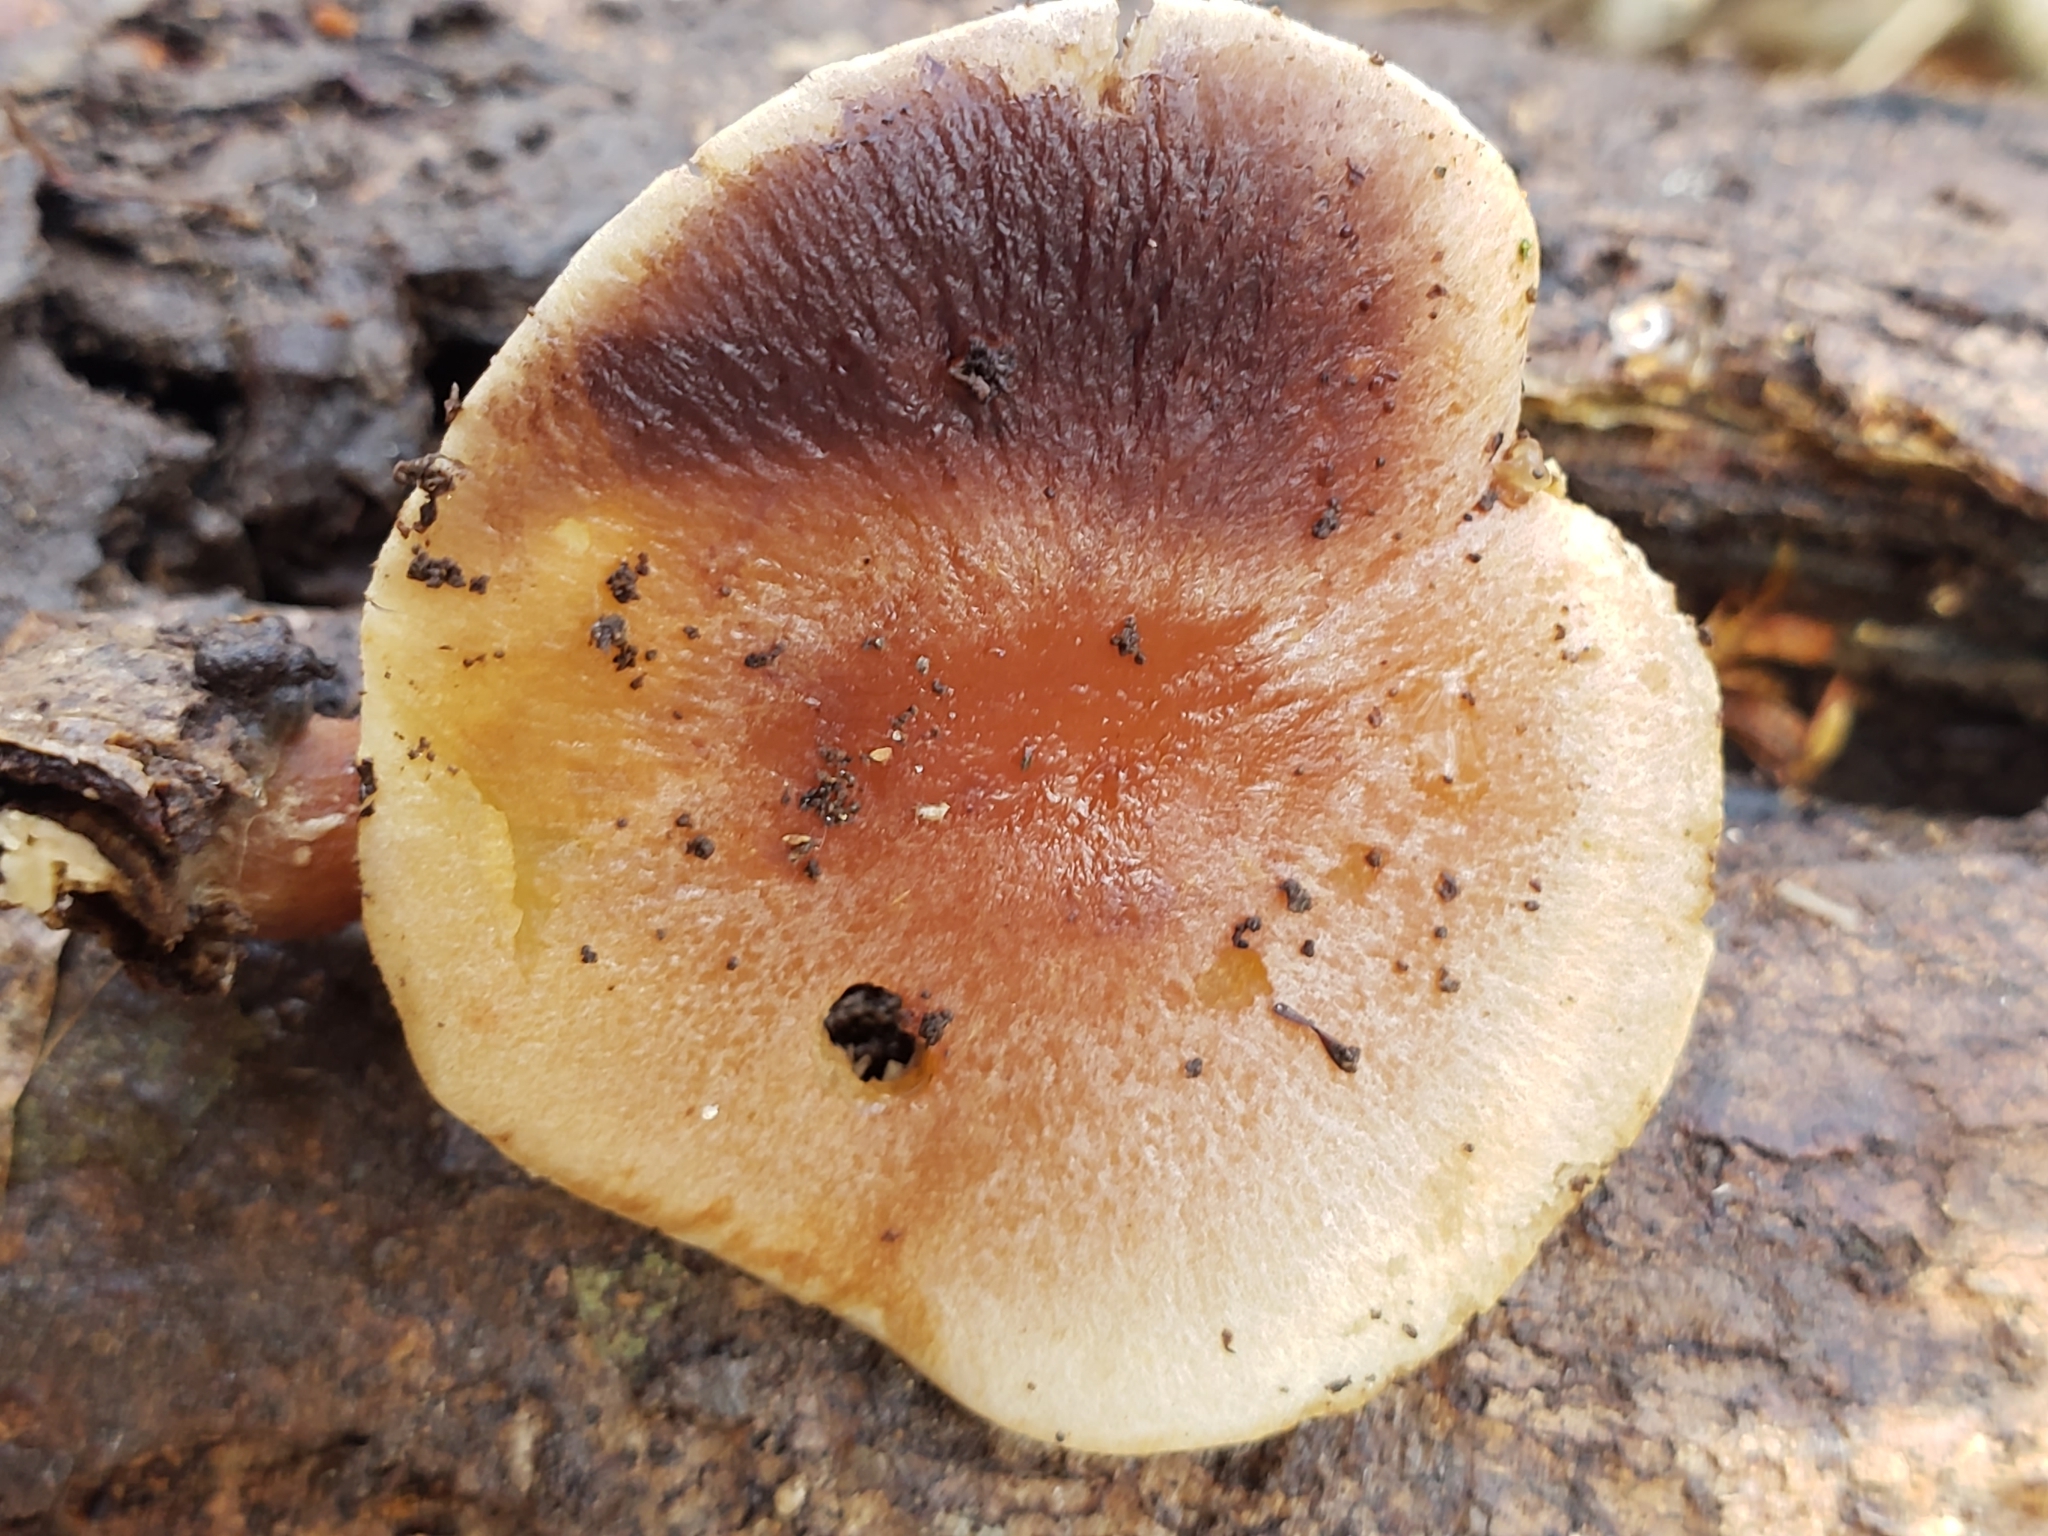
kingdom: Fungi
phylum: Basidiomycota
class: Agaricomycetes
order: Agaricales
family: Strophariaceae
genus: Hypholoma
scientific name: Hypholoma lateritium
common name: Brick caps
